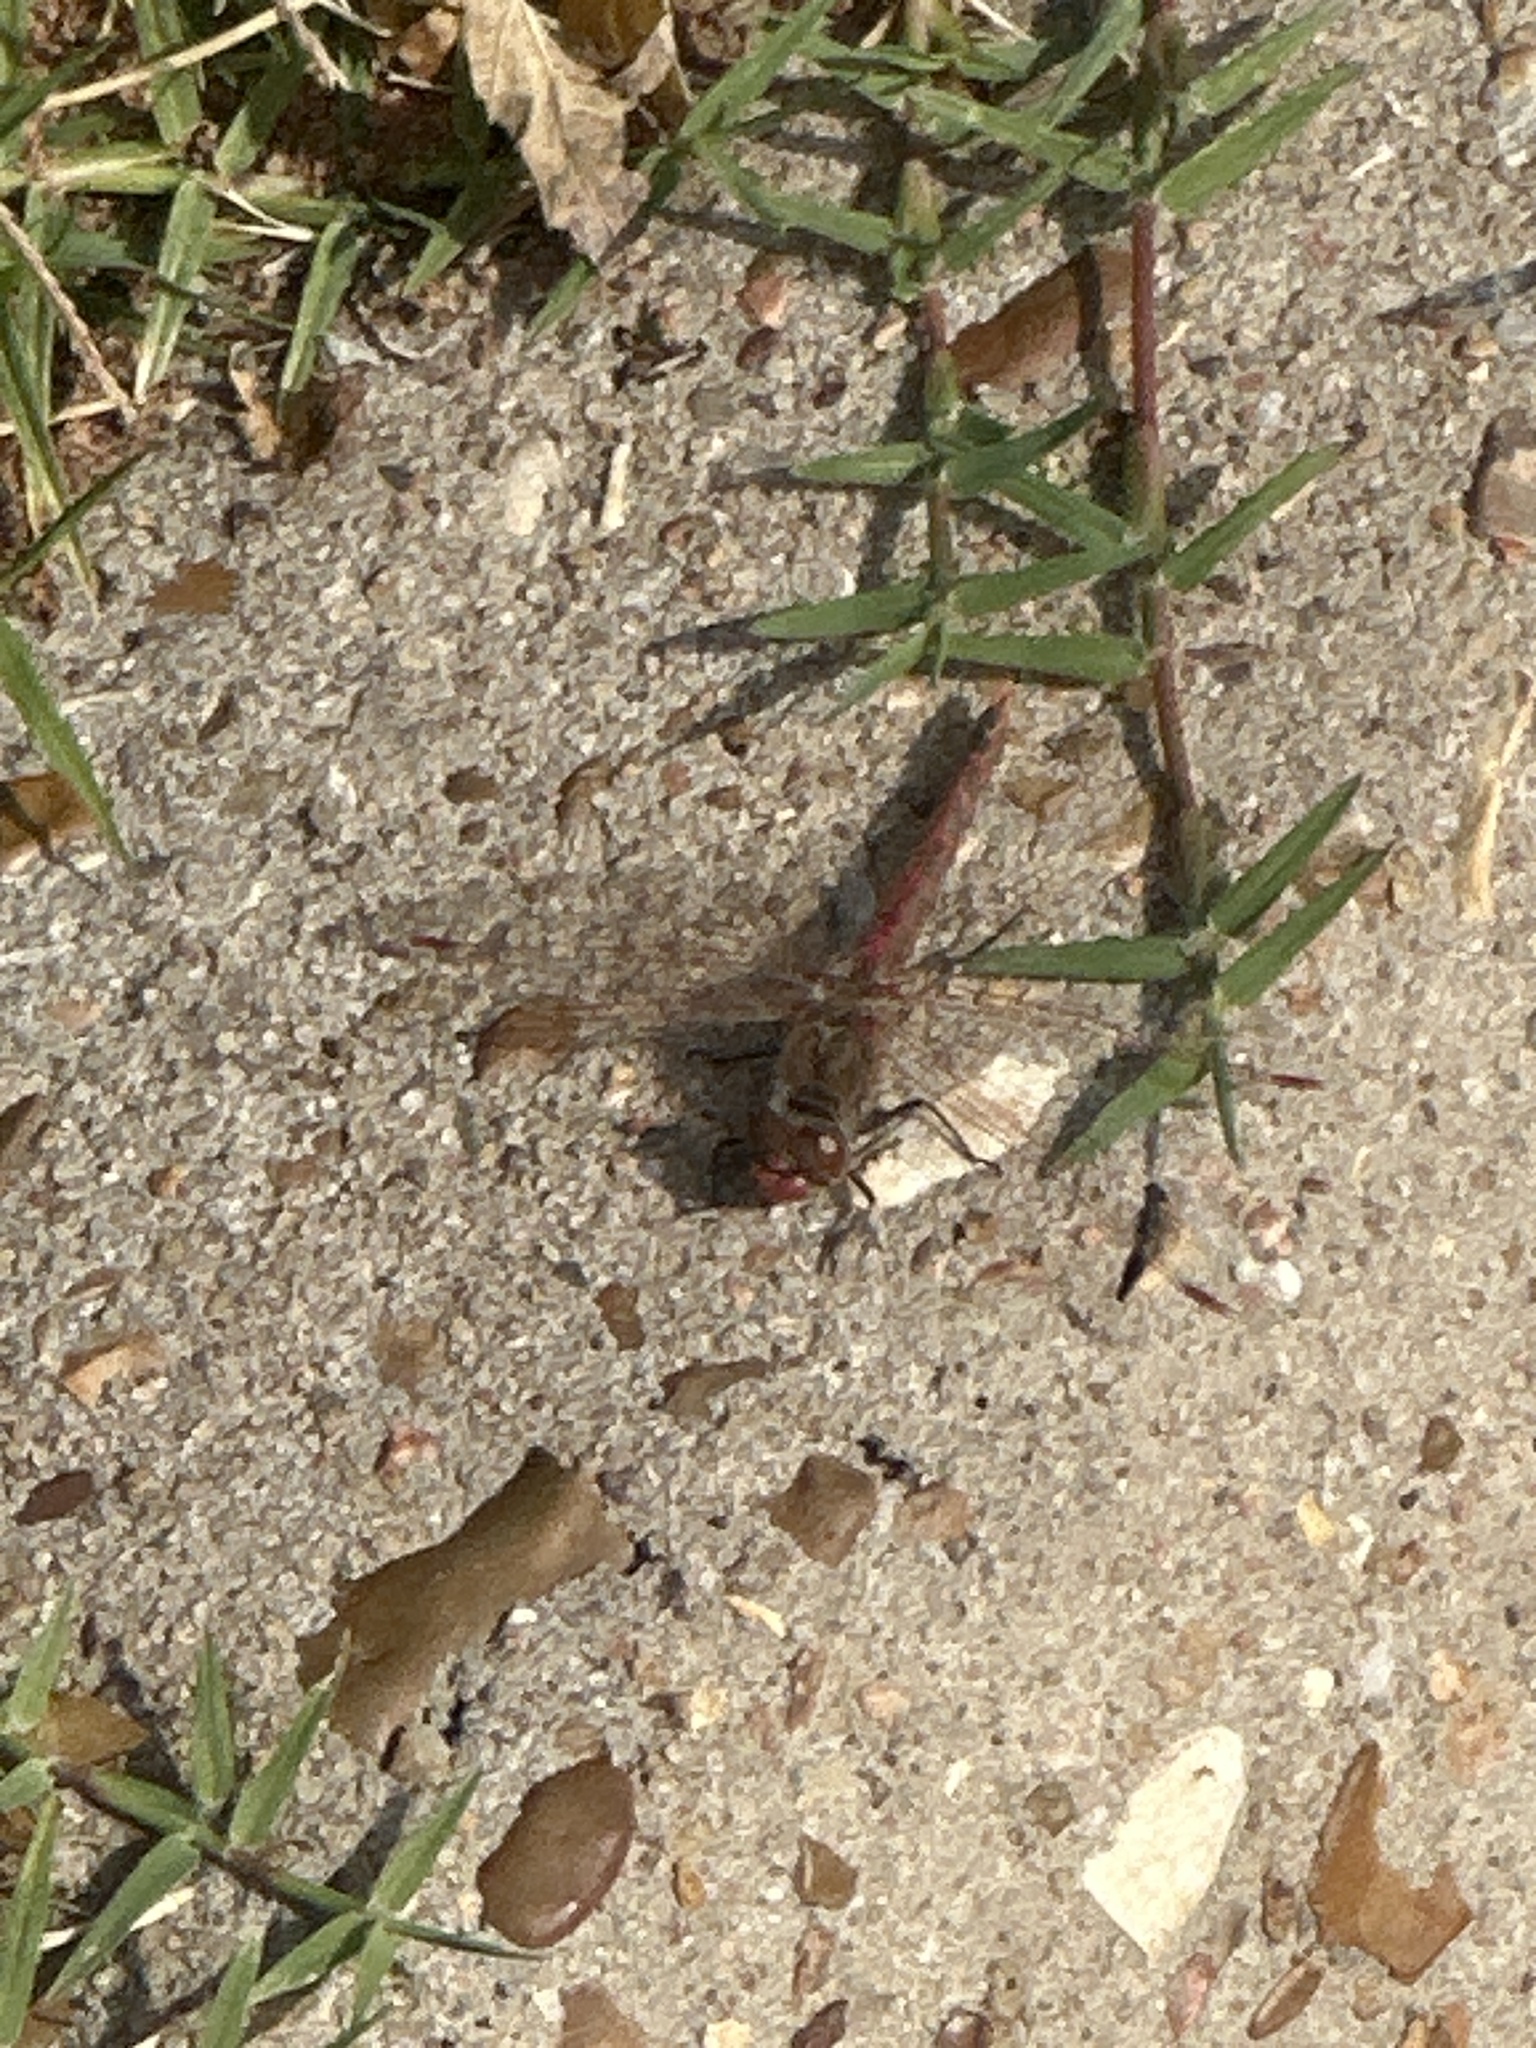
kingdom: Animalia
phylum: Arthropoda
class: Insecta
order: Odonata
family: Libellulidae
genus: Sympetrum
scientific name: Sympetrum corruptum
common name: Variegated meadowhawk
